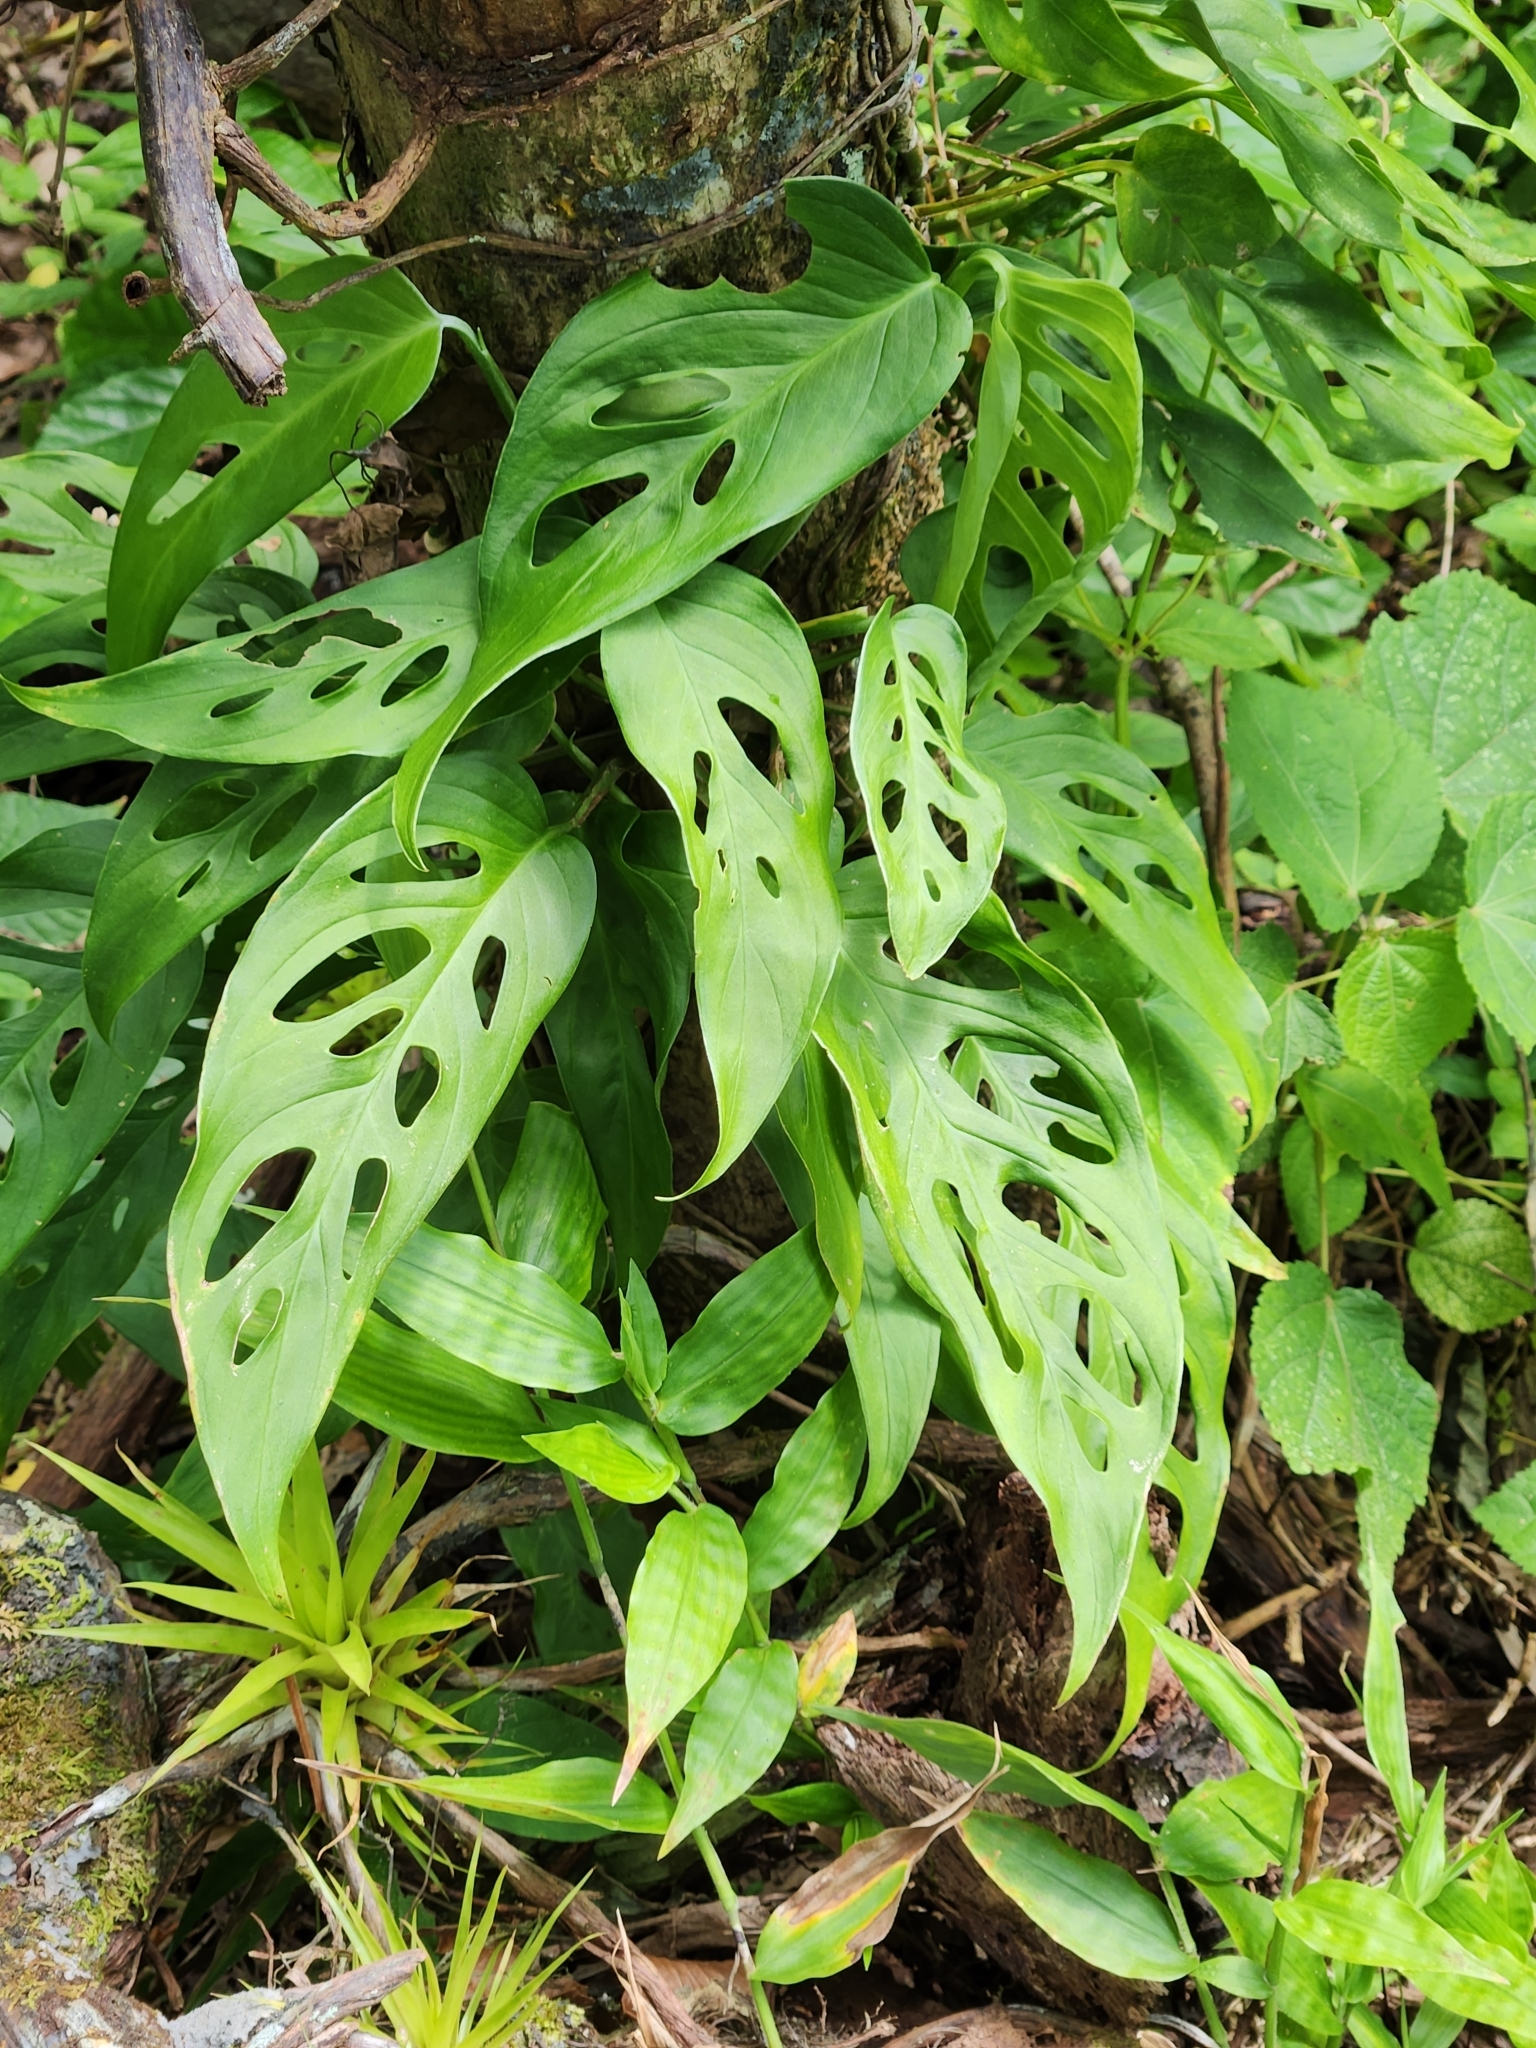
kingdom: Plantae
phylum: Tracheophyta
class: Liliopsida
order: Alismatales
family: Araceae
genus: Monstera
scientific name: Monstera adansonii
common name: Tarovine
